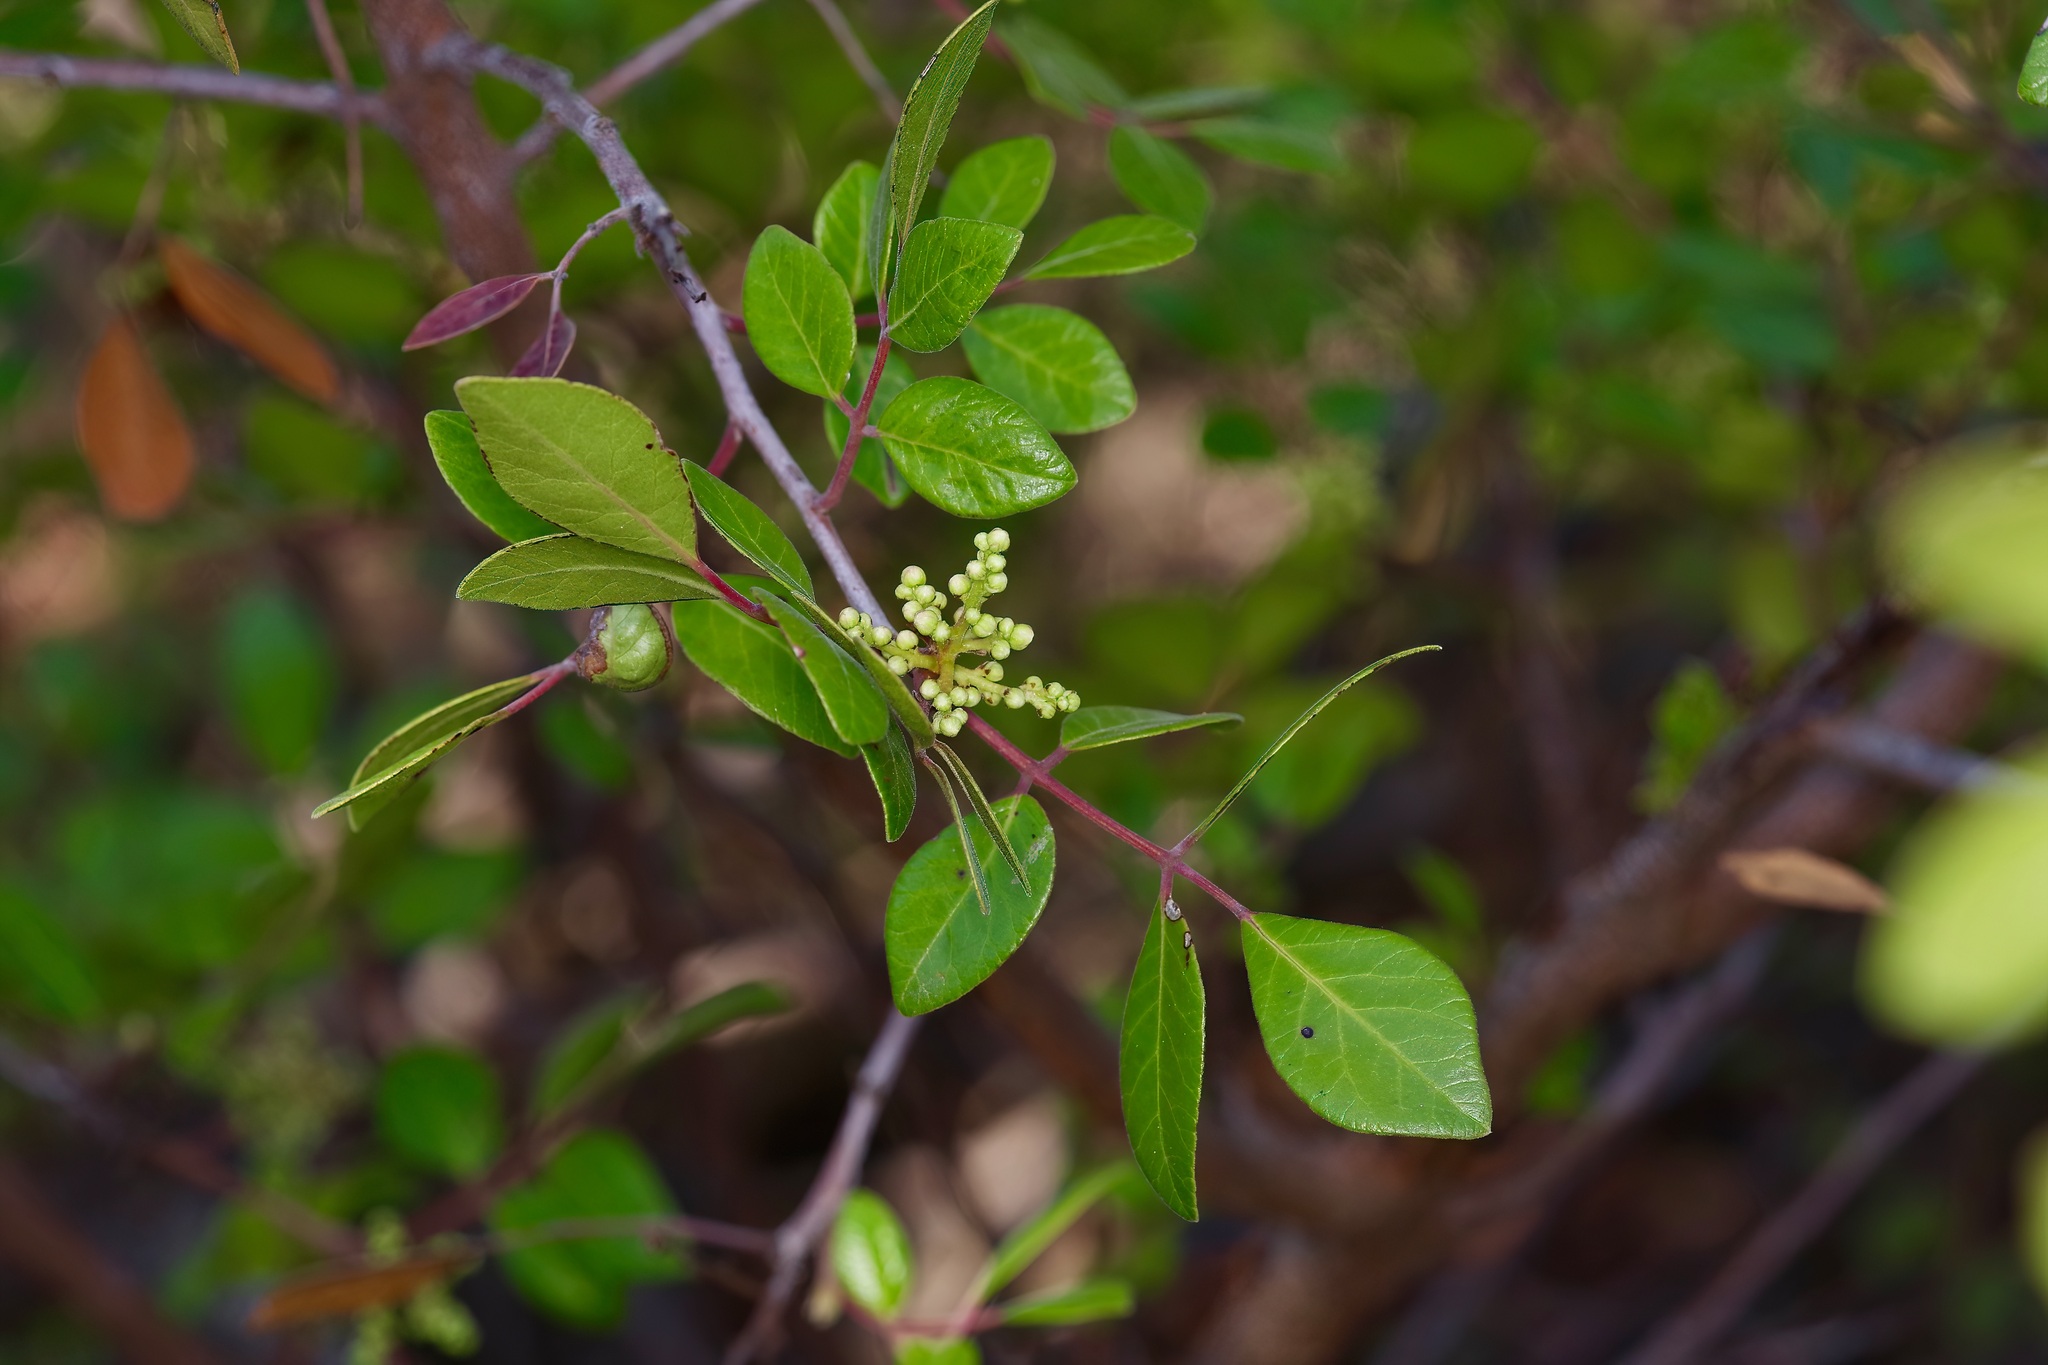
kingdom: Plantae
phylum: Tracheophyta
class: Magnoliopsida
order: Sapindales
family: Anacardiaceae
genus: Rhus
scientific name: Rhus virens
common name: Evergreen sumac
